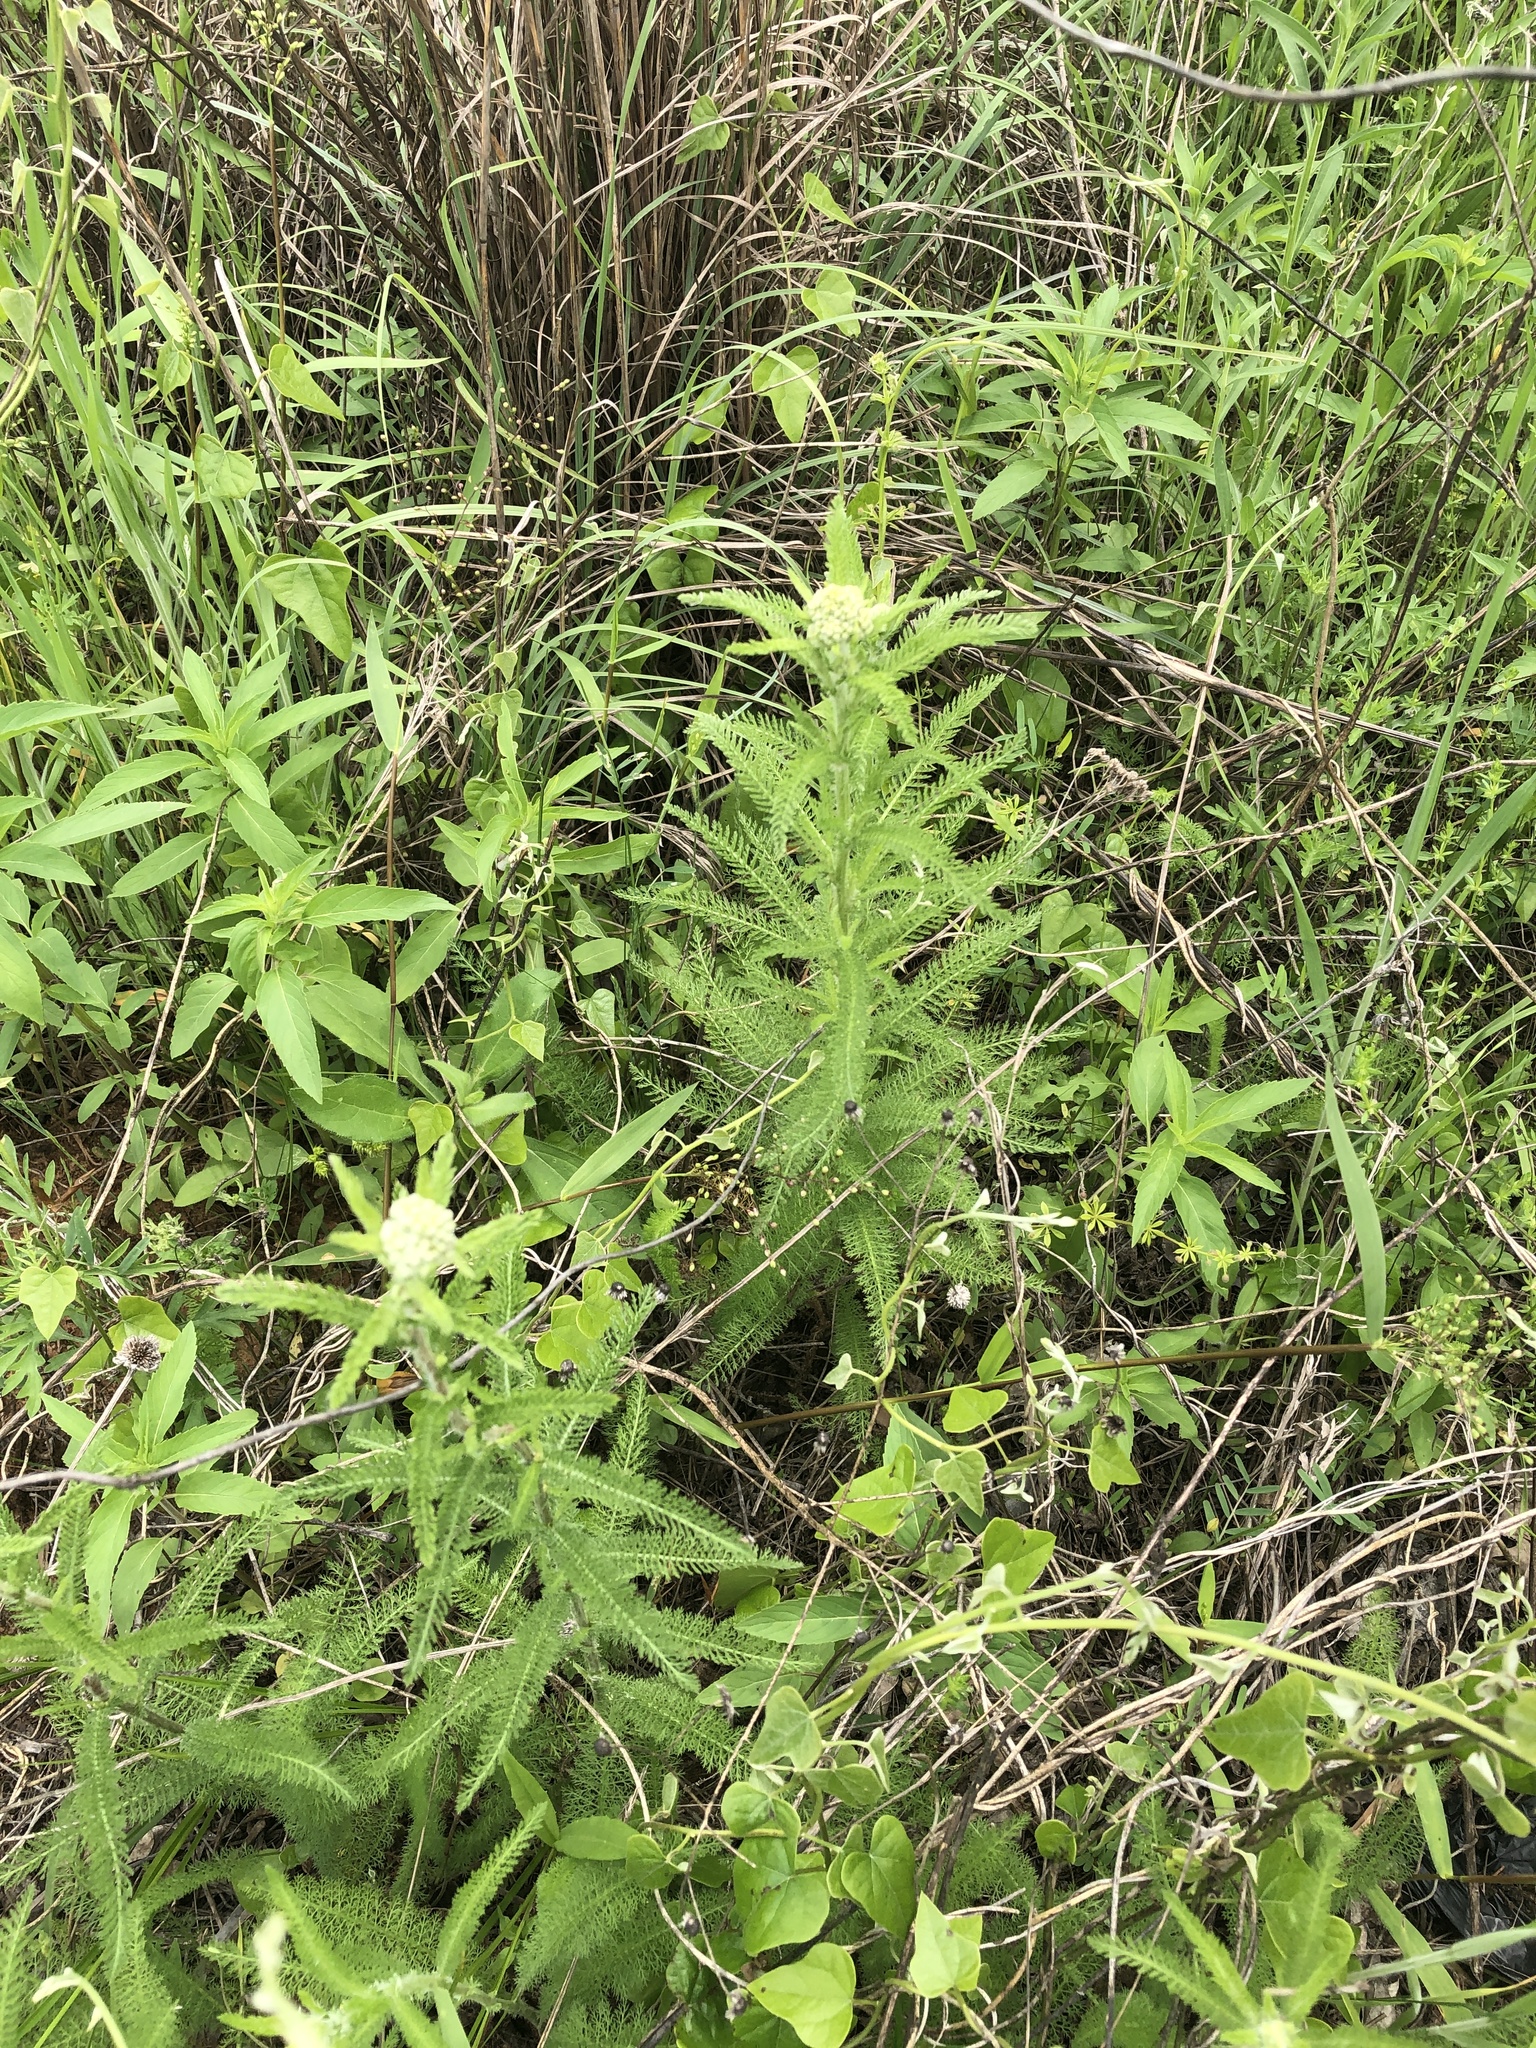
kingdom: Plantae
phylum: Tracheophyta
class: Magnoliopsida
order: Asterales
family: Asteraceae
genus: Achillea
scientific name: Achillea millefolium
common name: Yarrow
